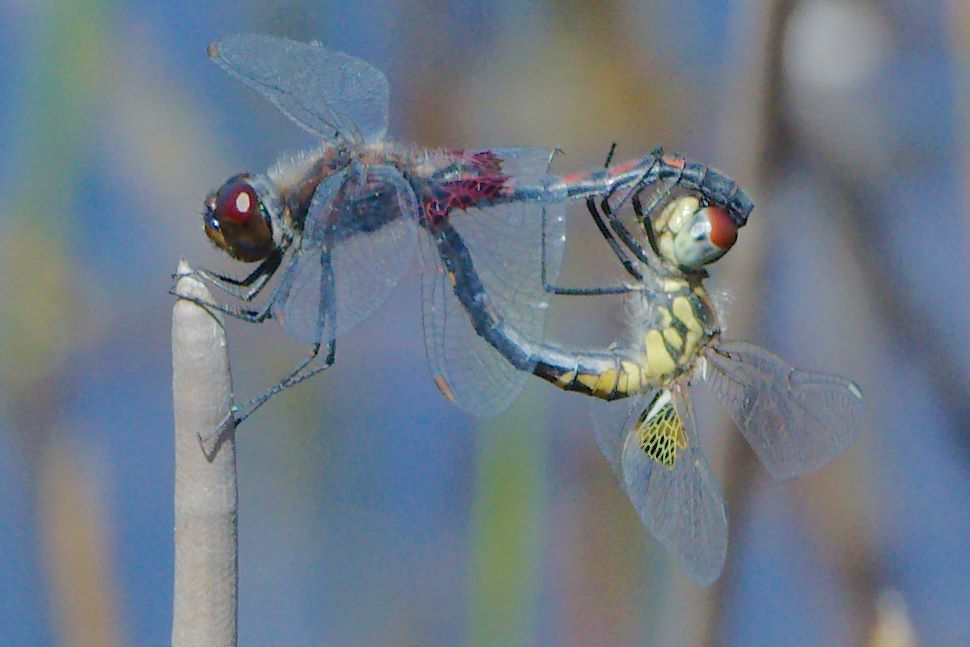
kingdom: Animalia
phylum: Arthropoda
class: Insecta
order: Odonata
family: Libellulidae
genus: Celithemis
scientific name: Celithemis ornata
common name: Ornate pennant
